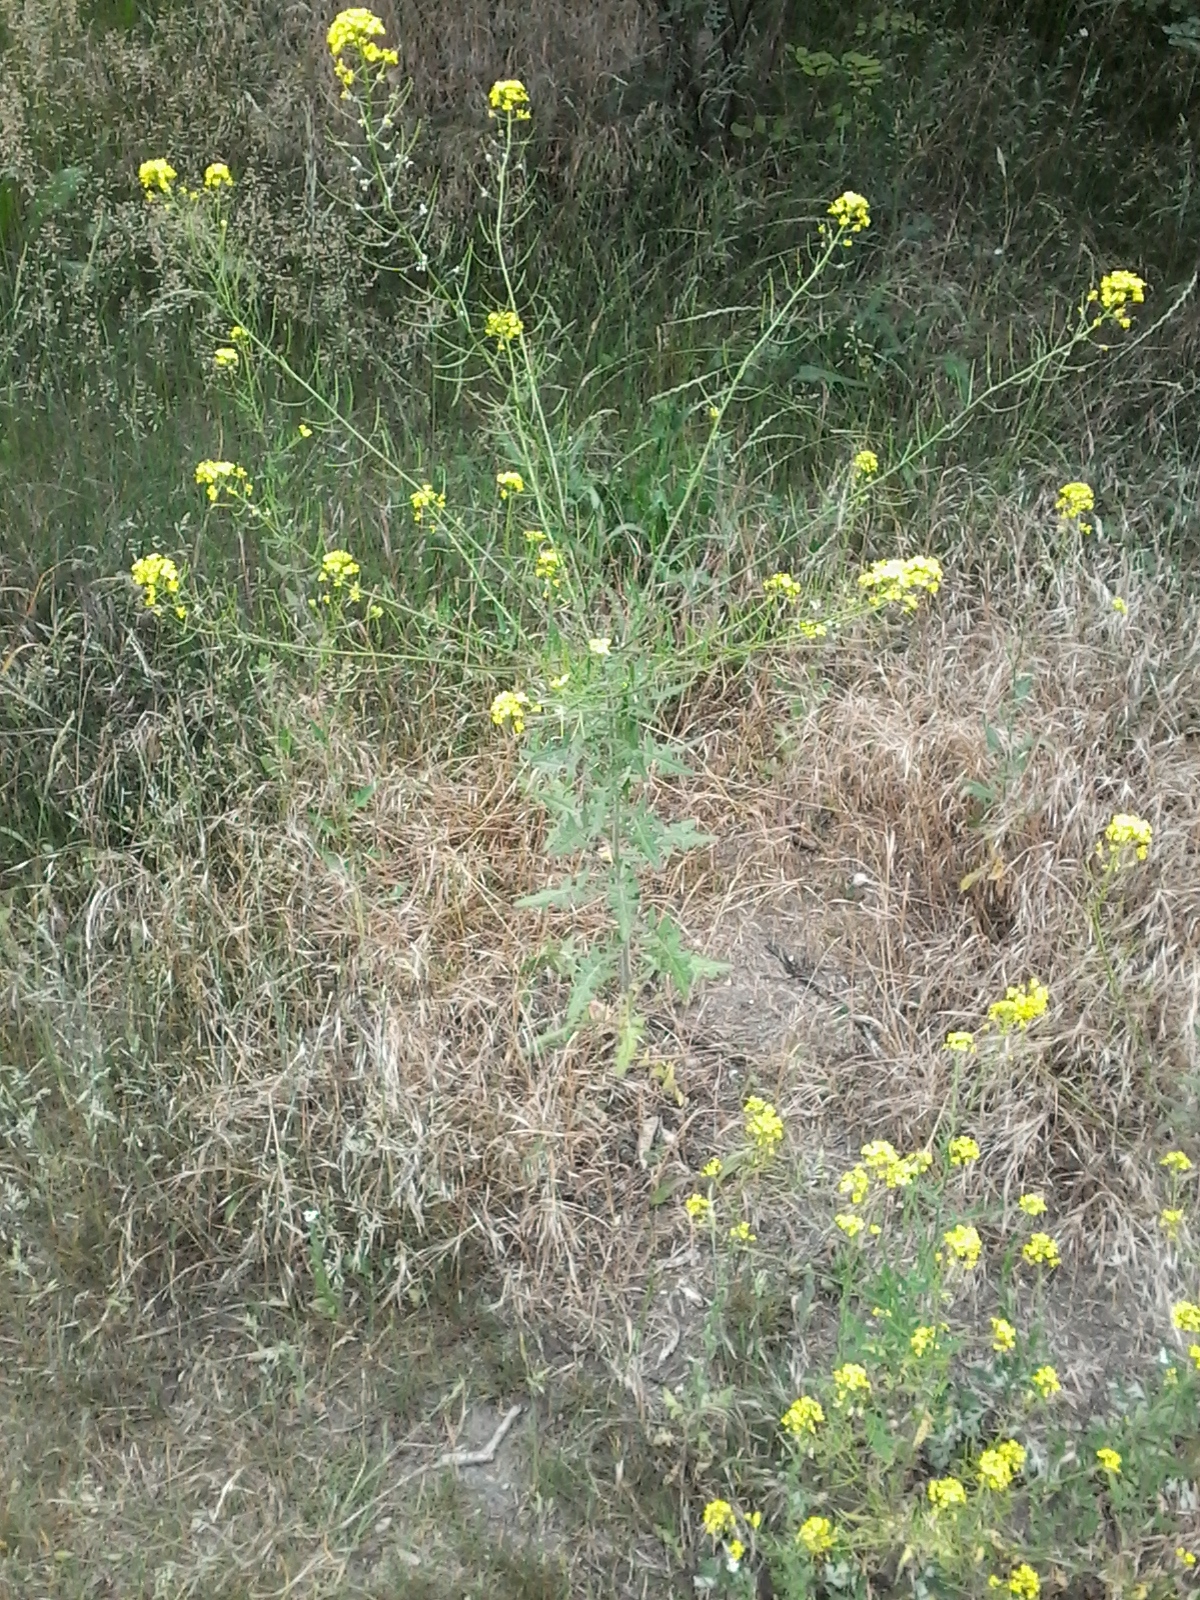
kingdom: Plantae
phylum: Tracheophyta
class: Magnoliopsida
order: Brassicales
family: Brassicaceae
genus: Sisymbrium
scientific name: Sisymbrium loeselii
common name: False london-rocket
